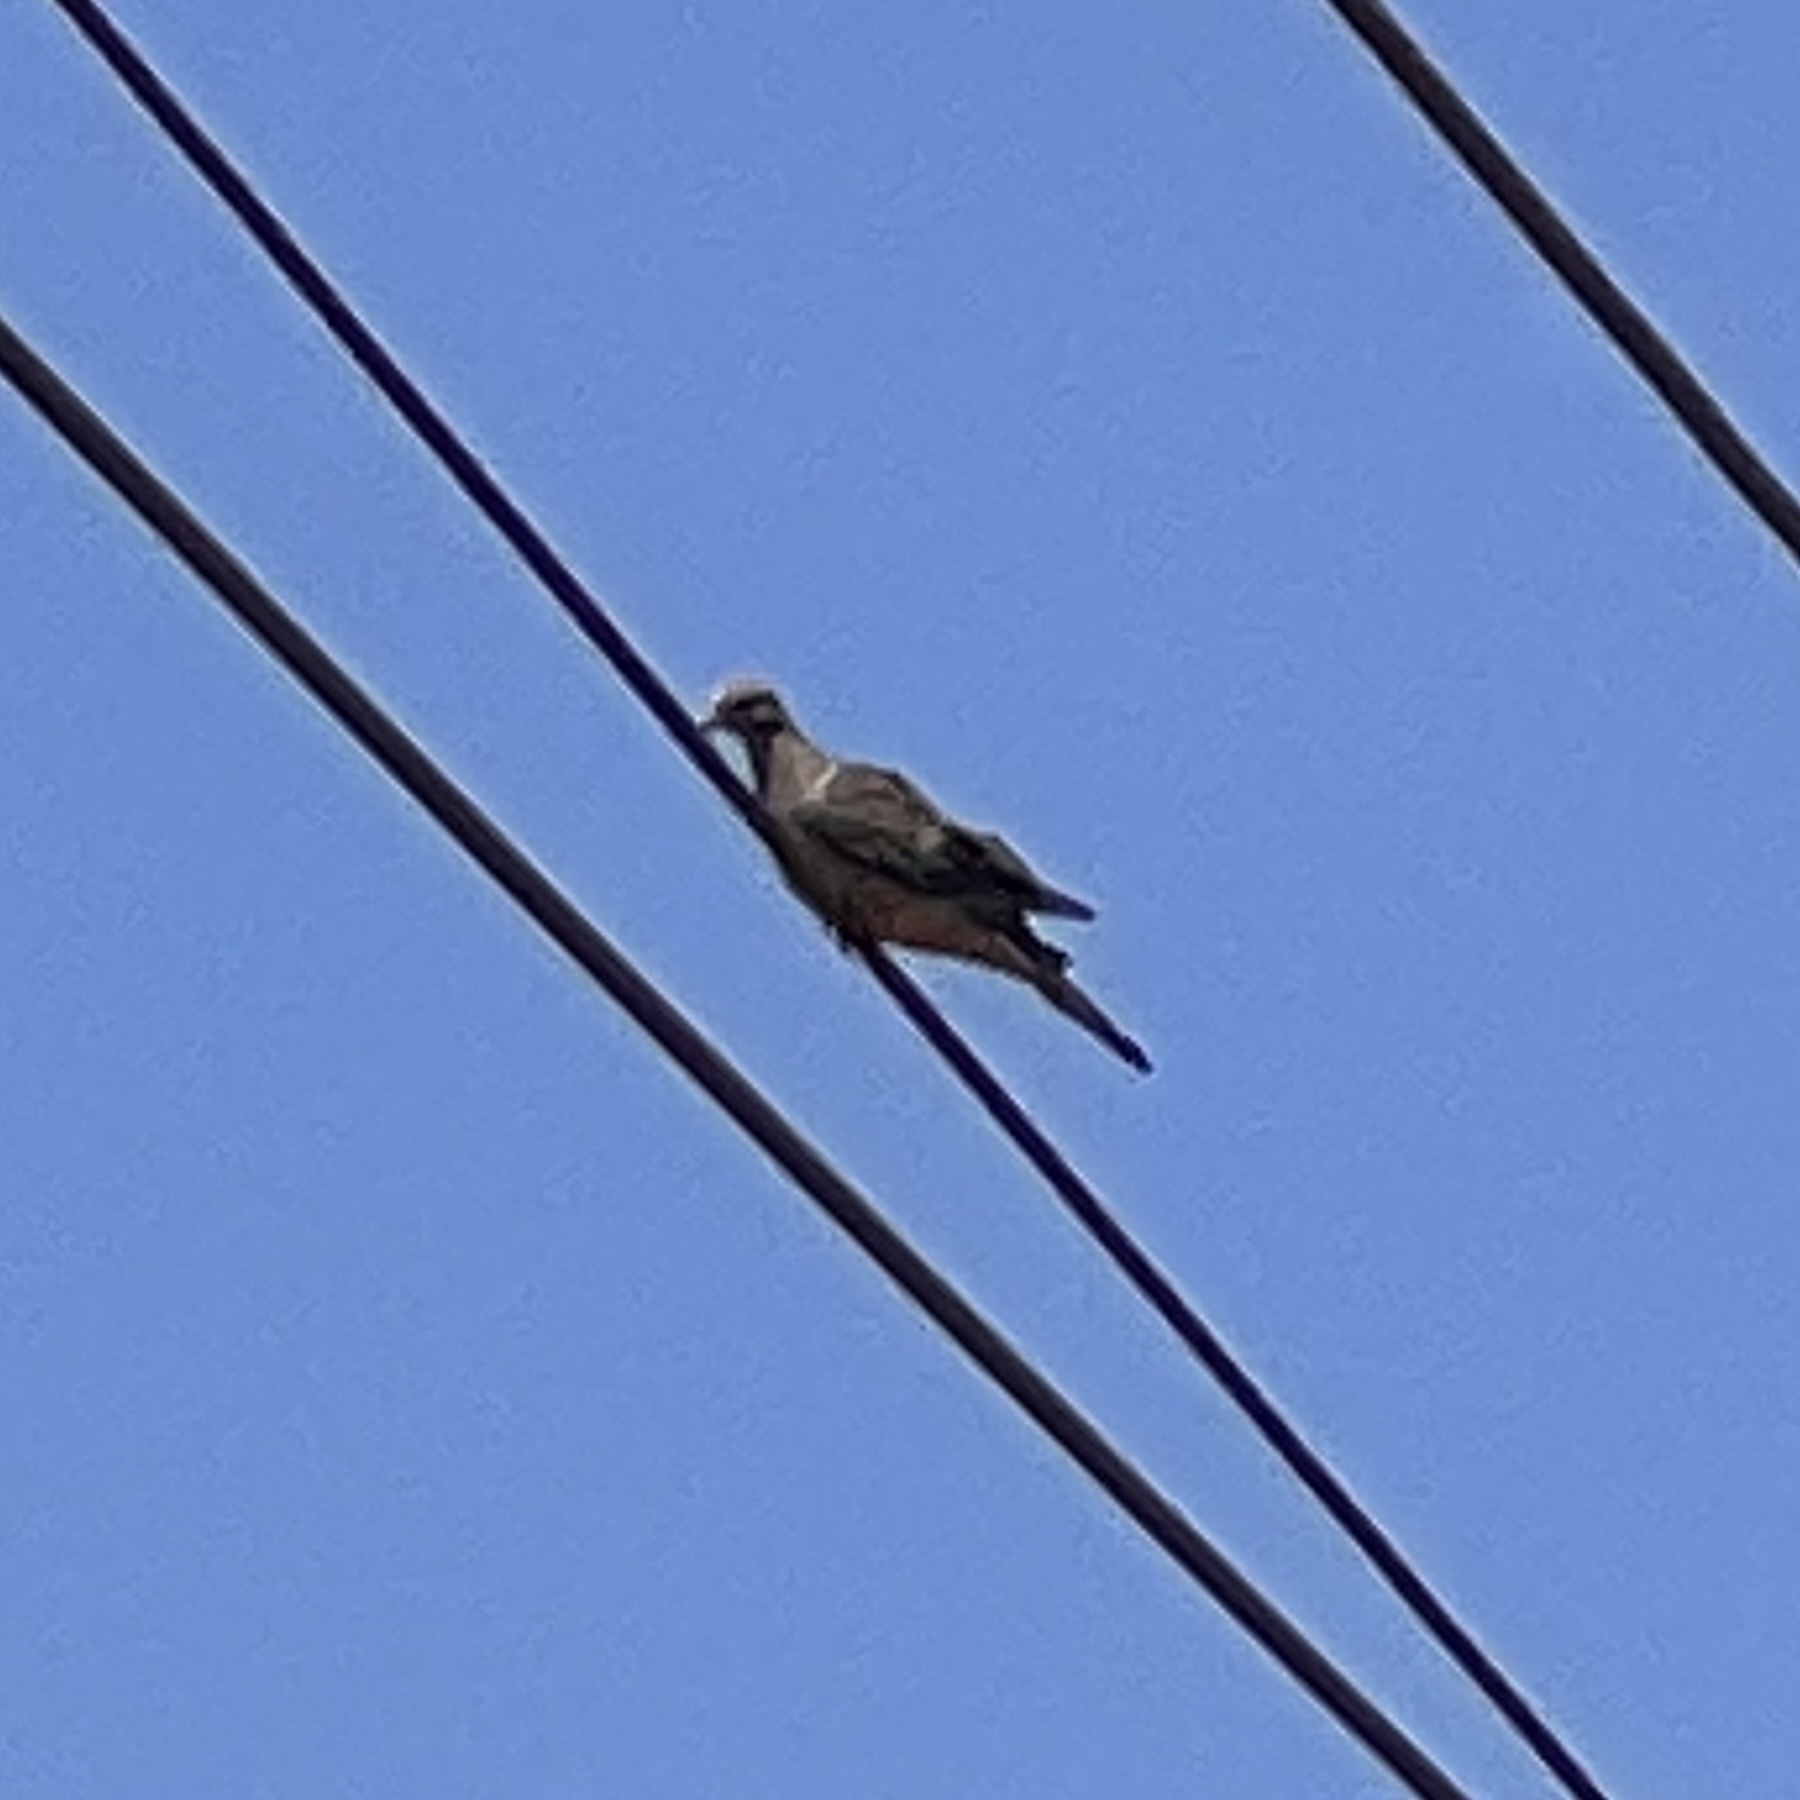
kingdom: Animalia
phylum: Chordata
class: Aves
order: Columbiformes
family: Columbidae
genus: Zenaida
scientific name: Zenaida macroura
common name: Mourning dove
